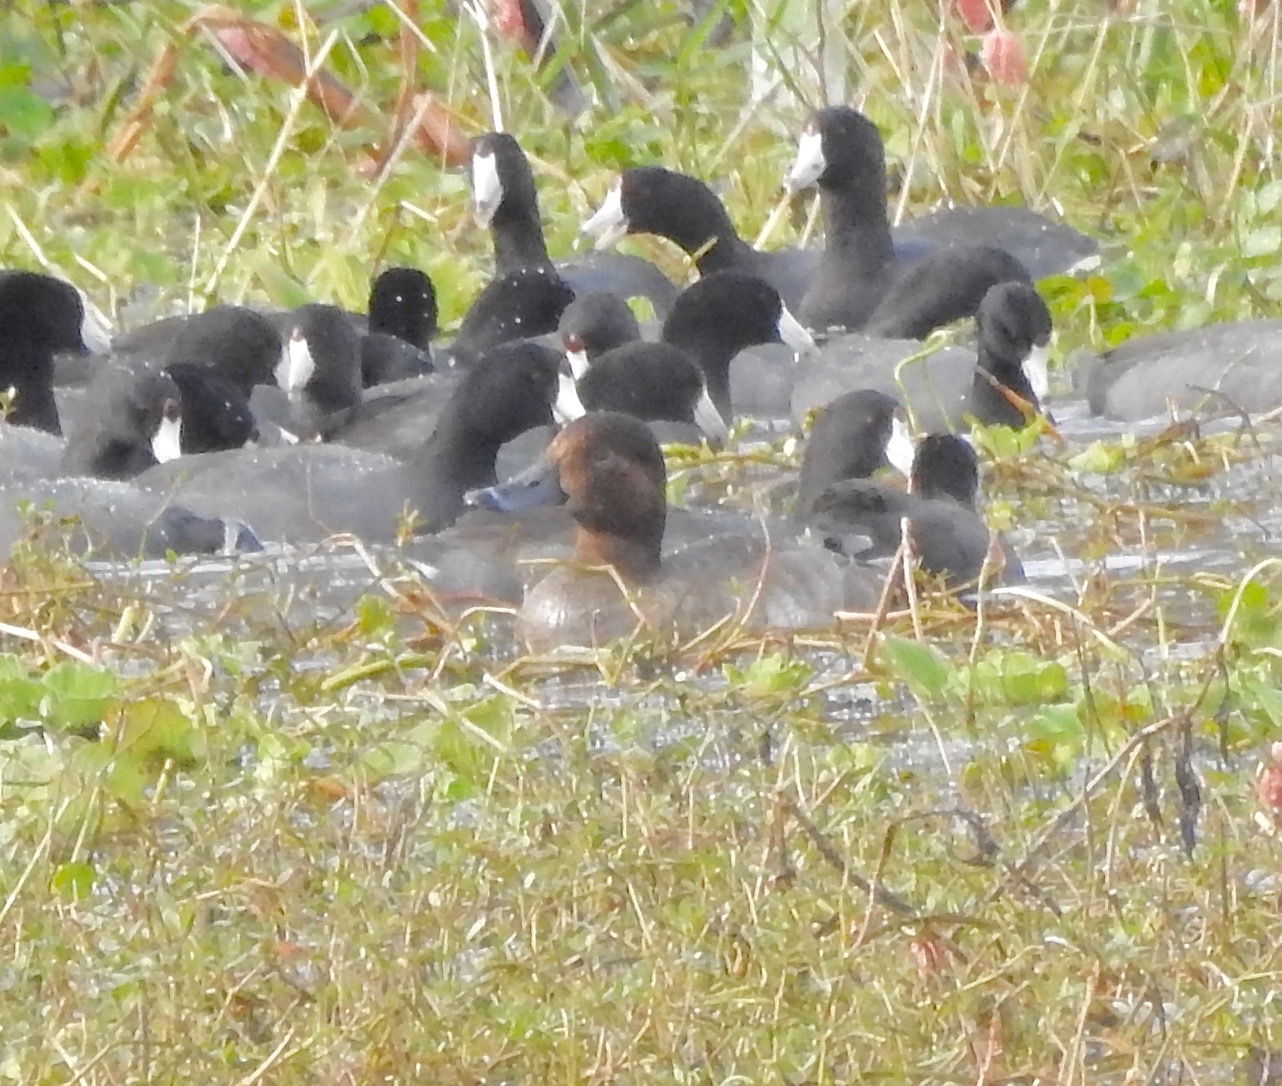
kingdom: Animalia
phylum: Chordata
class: Aves
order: Anseriformes
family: Anatidae
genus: Aythya
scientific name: Aythya americana
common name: Redhead
